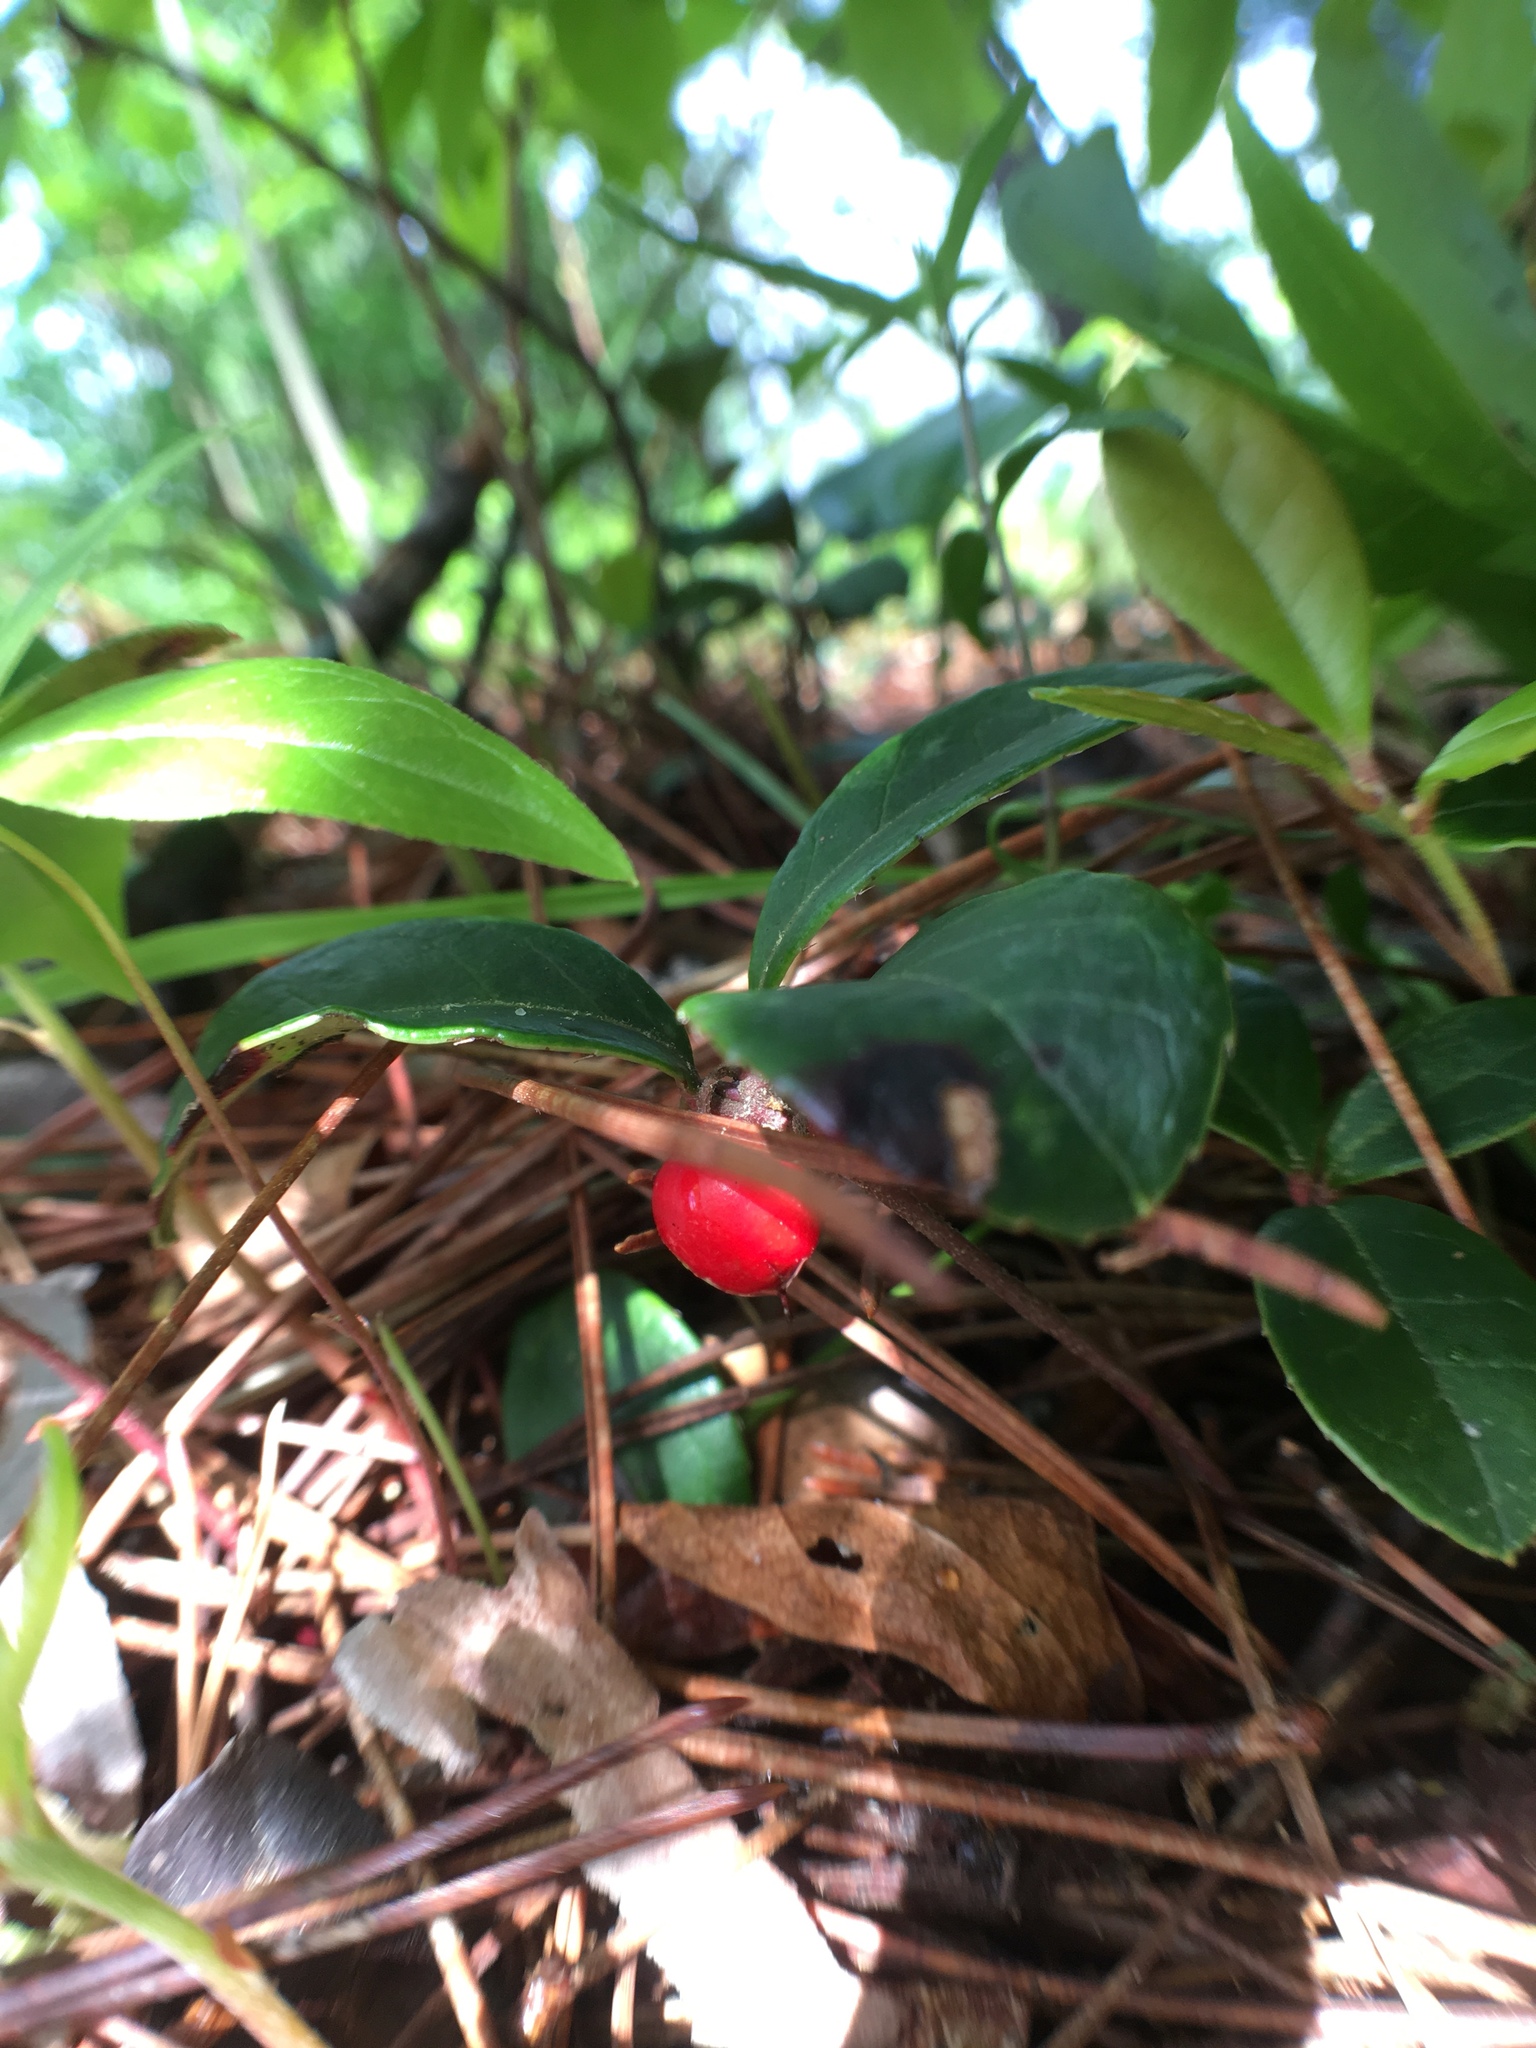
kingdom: Plantae
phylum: Tracheophyta
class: Magnoliopsida
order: Ericales
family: Ericaceae
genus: Gaultheria
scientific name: Gaultheria procumbens
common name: Checkerberry
